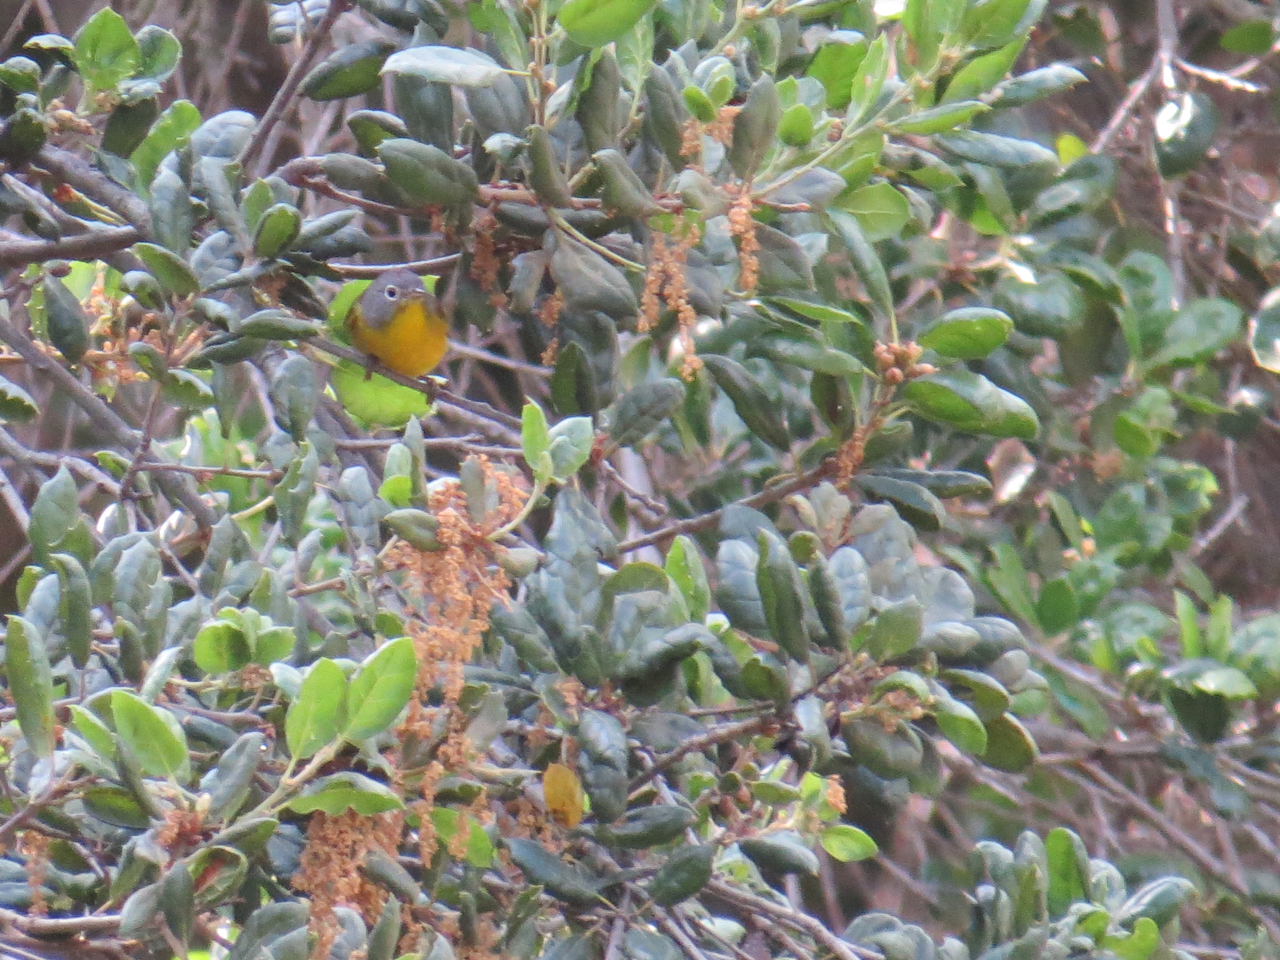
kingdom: Animalia
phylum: Chordata
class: Aves
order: Passeriformes
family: Parulidae
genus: Leiothlypis
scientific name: Leiothlypis ruficapilla
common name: Nashville warbler
